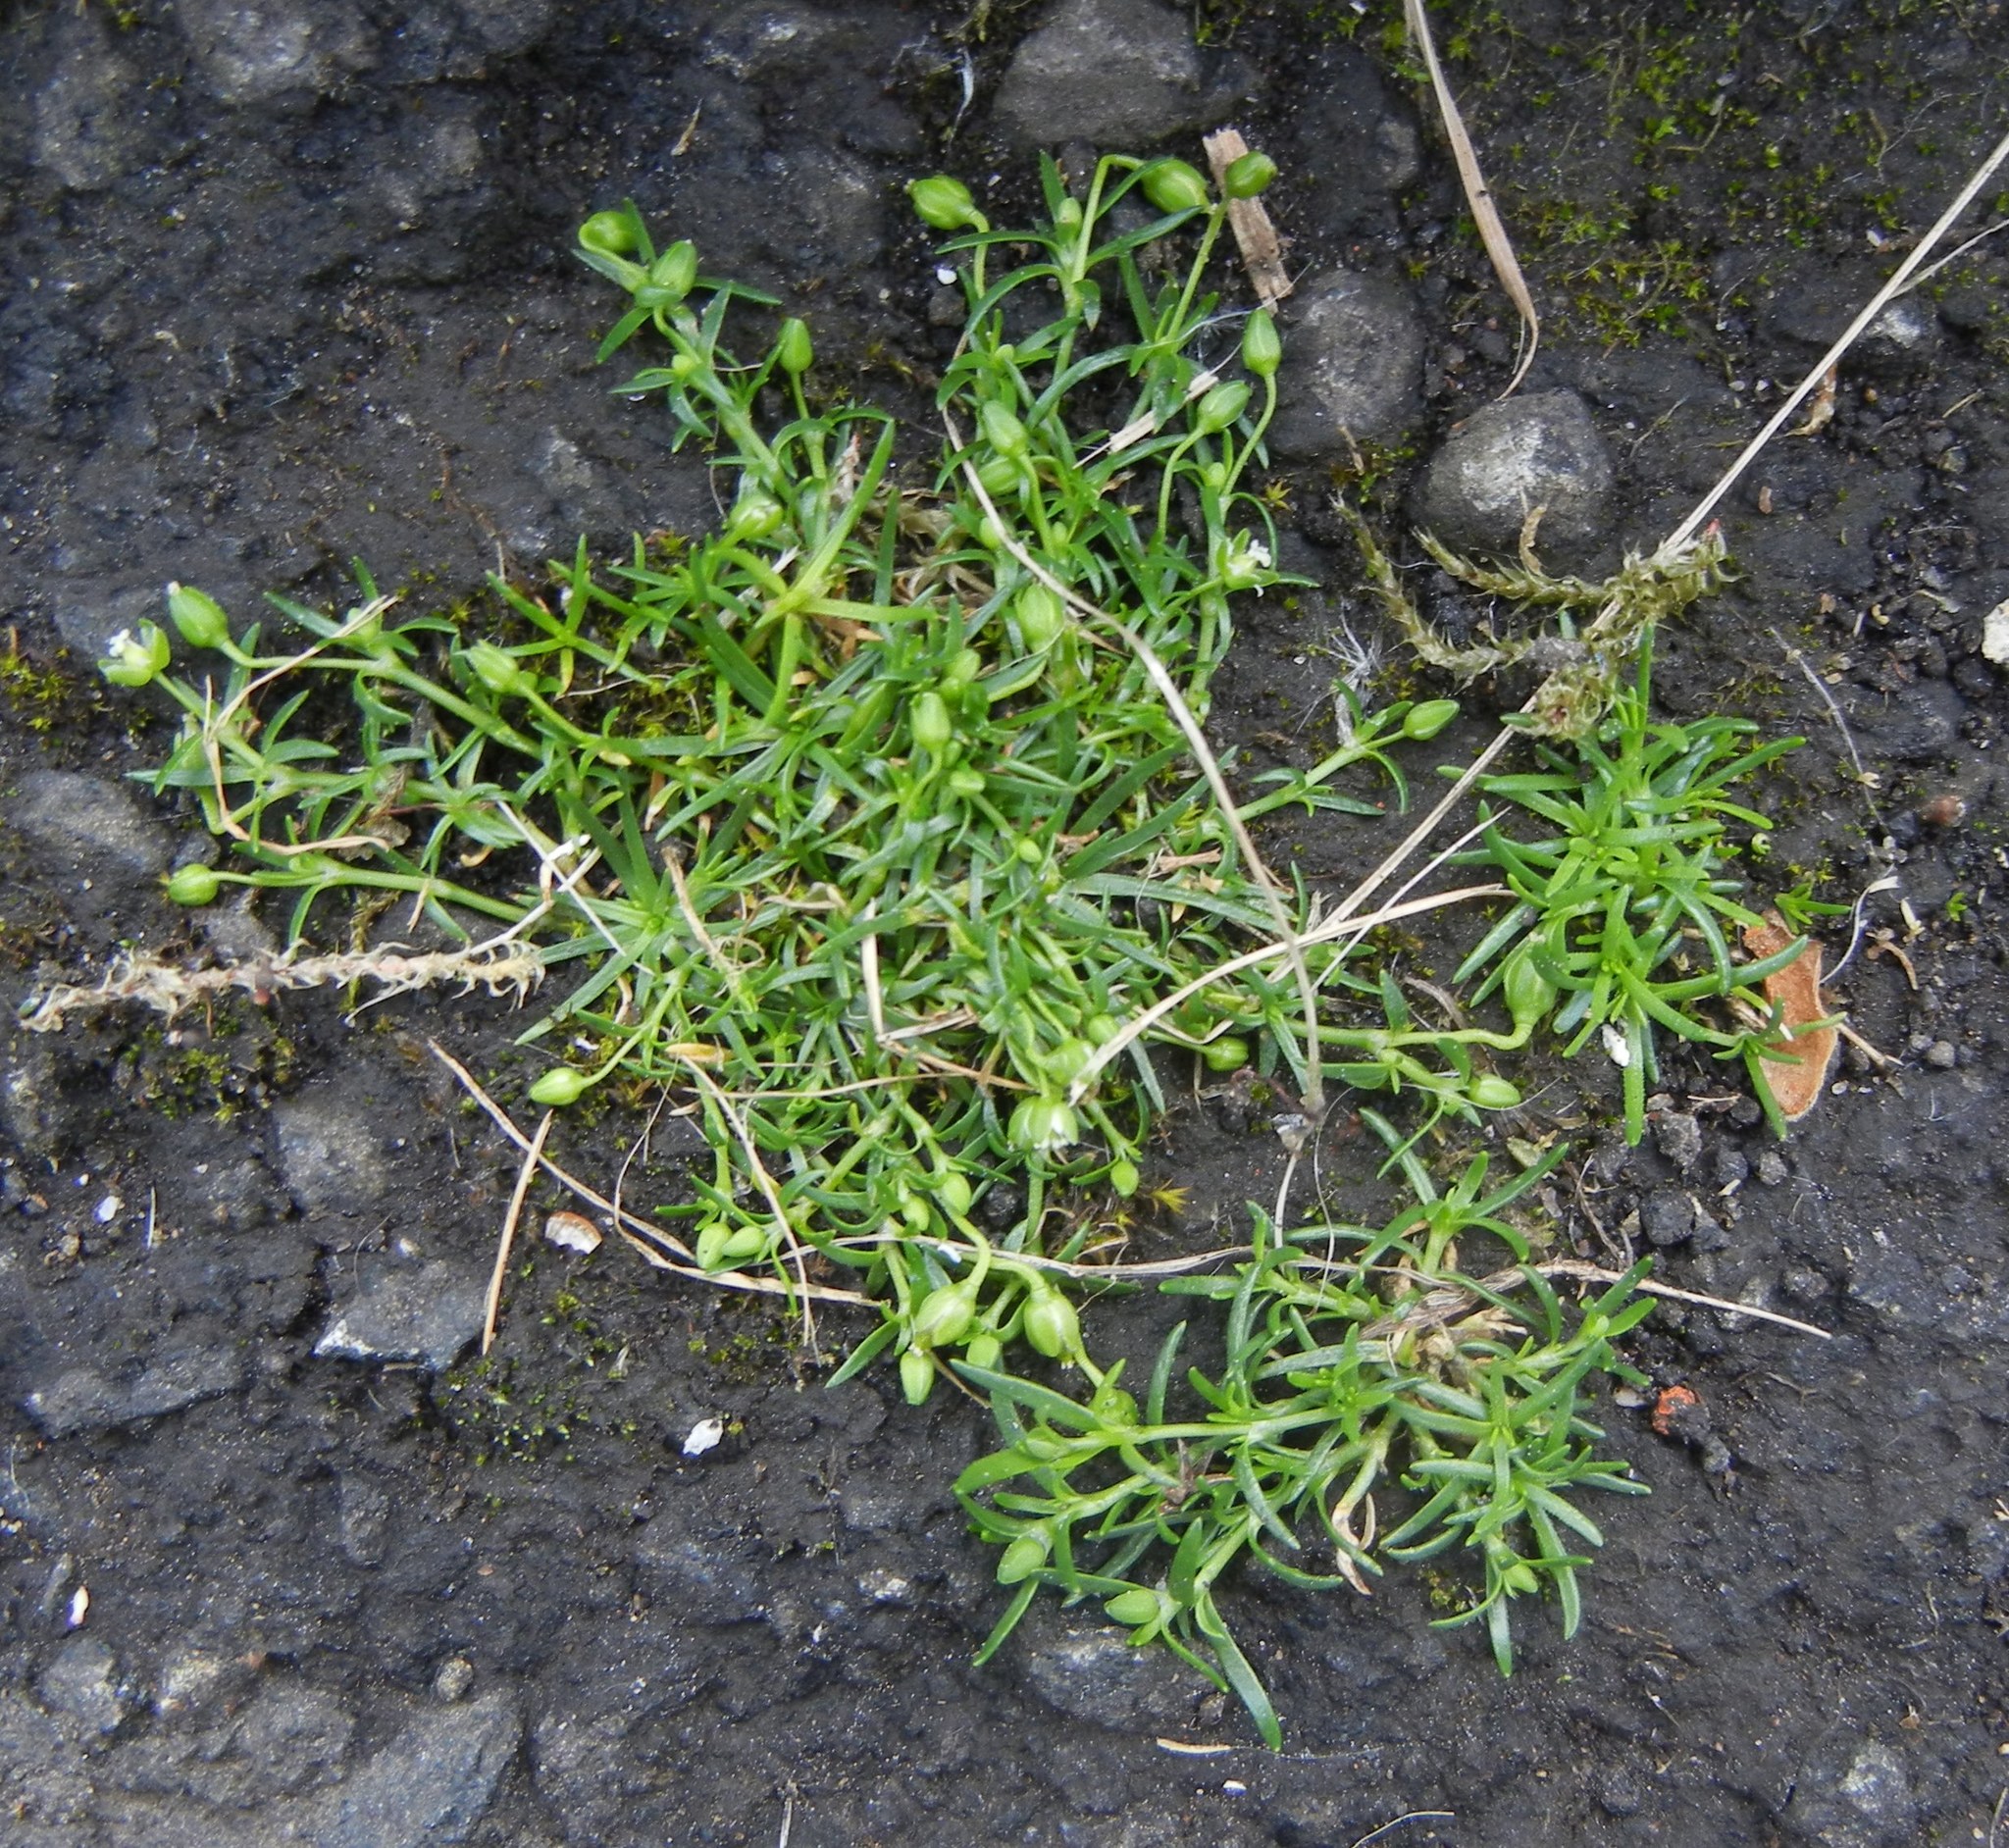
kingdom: Plantae
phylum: Tracheophyta
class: Magnoliopsida
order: Caryophyllales
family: Caryophyllaceae
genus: Sagina
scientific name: Sagina procumbens
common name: Procumbent pearlwort
